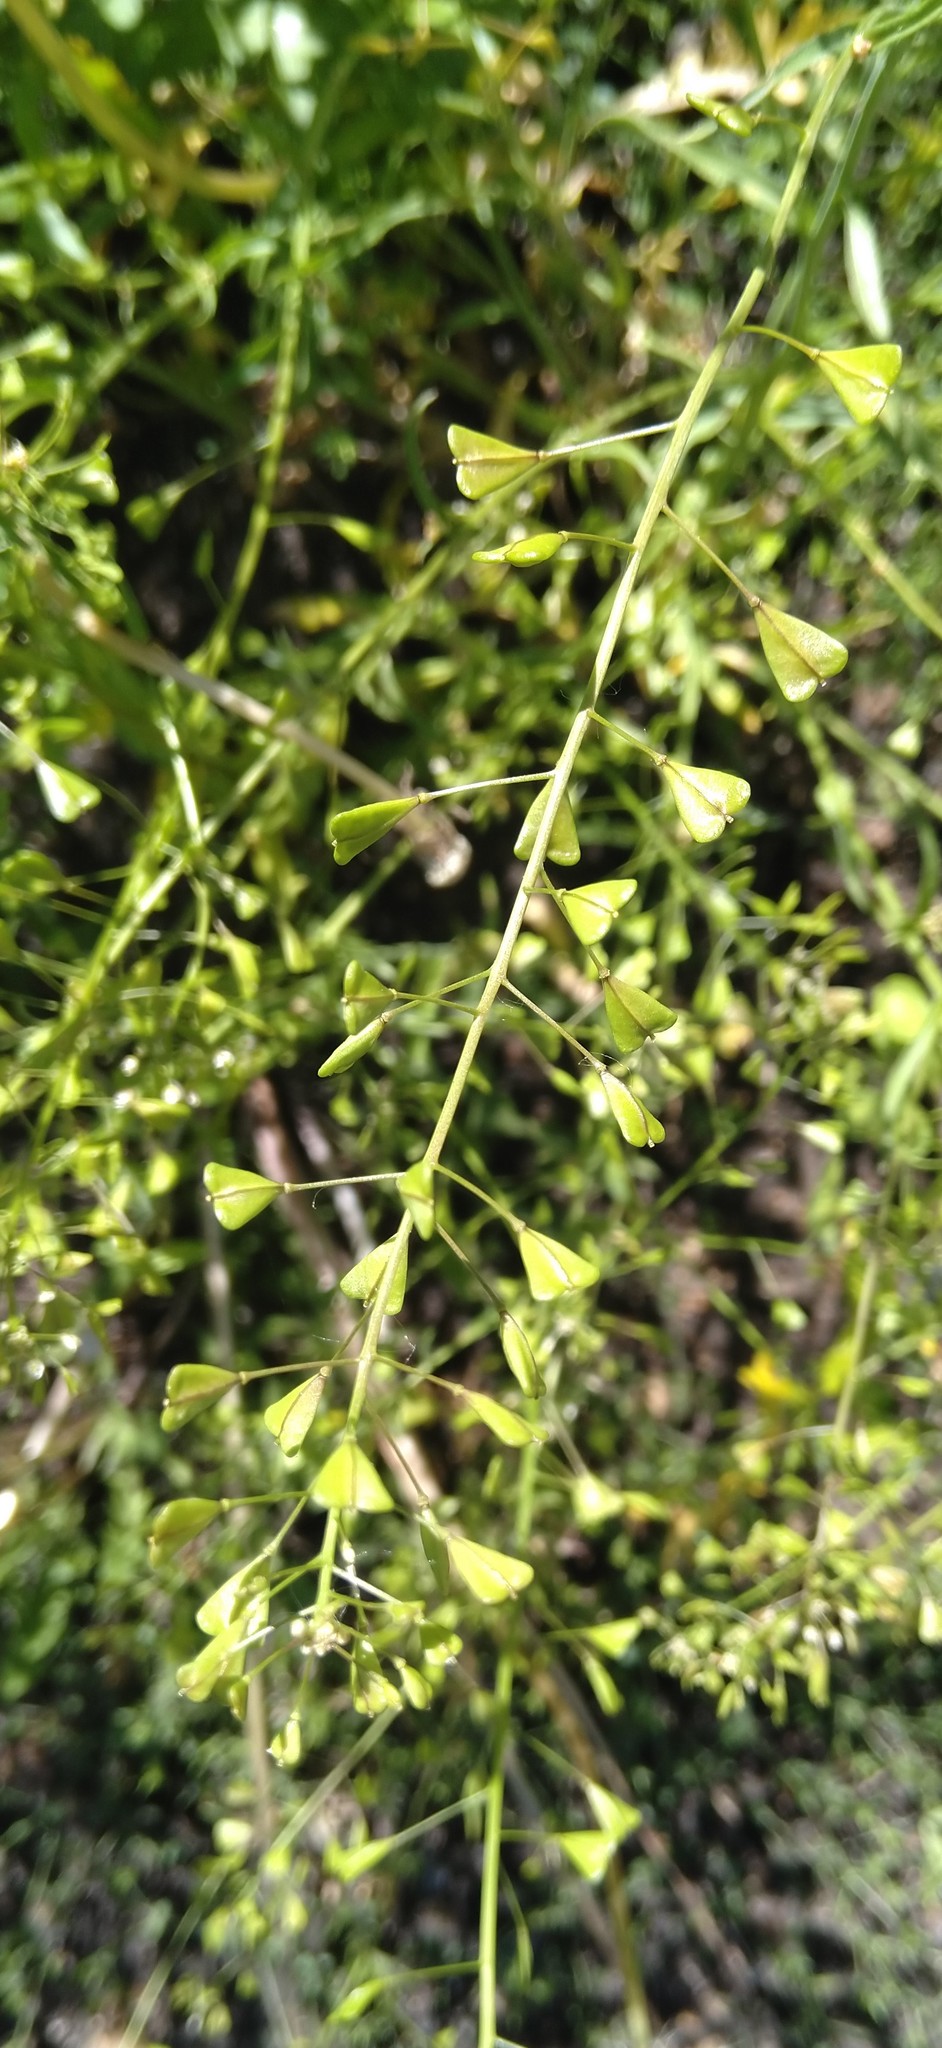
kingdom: Plantae
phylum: Tracheophyta
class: Magnoliopsida
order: Brassicales
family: Brassicaceae
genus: Capsella
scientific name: Capsella bursa-pastoris
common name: Shepherd's purse
